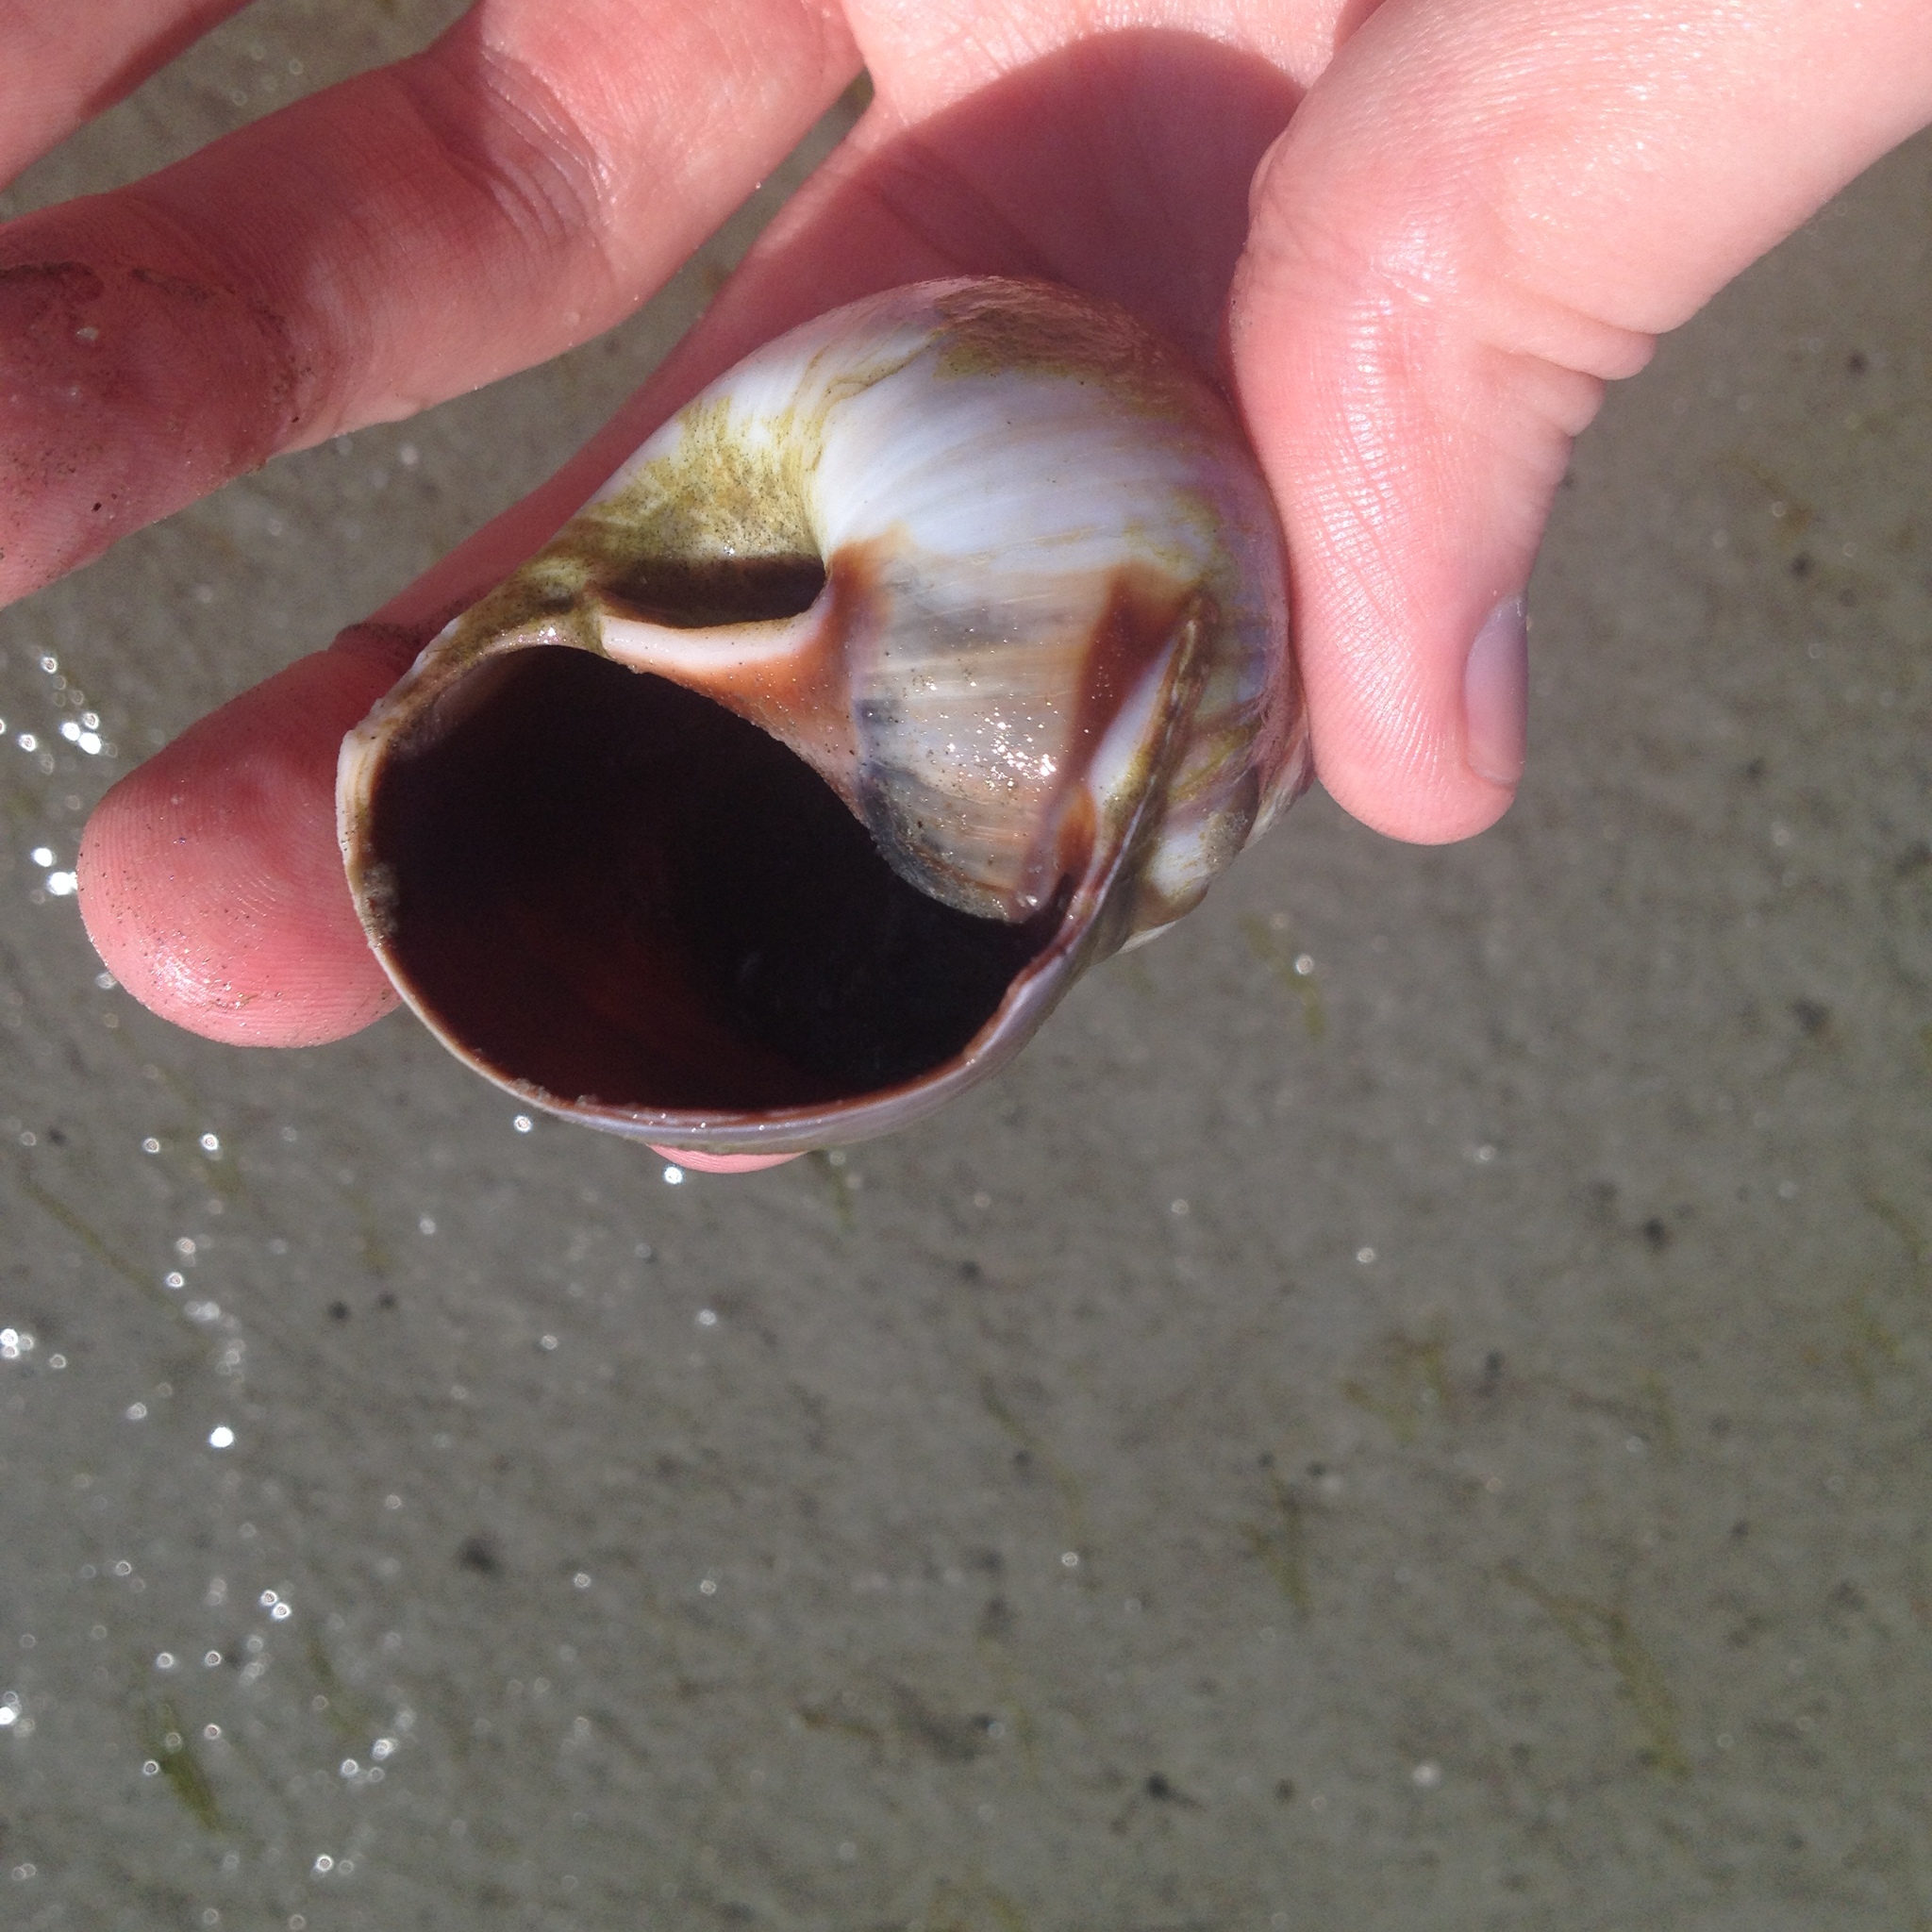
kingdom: Animalia
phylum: Mollusca
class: Gastropoda
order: Littorinimorpha
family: Naticidae
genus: Euspira
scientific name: Euspira heros
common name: Common northern moonsnail
